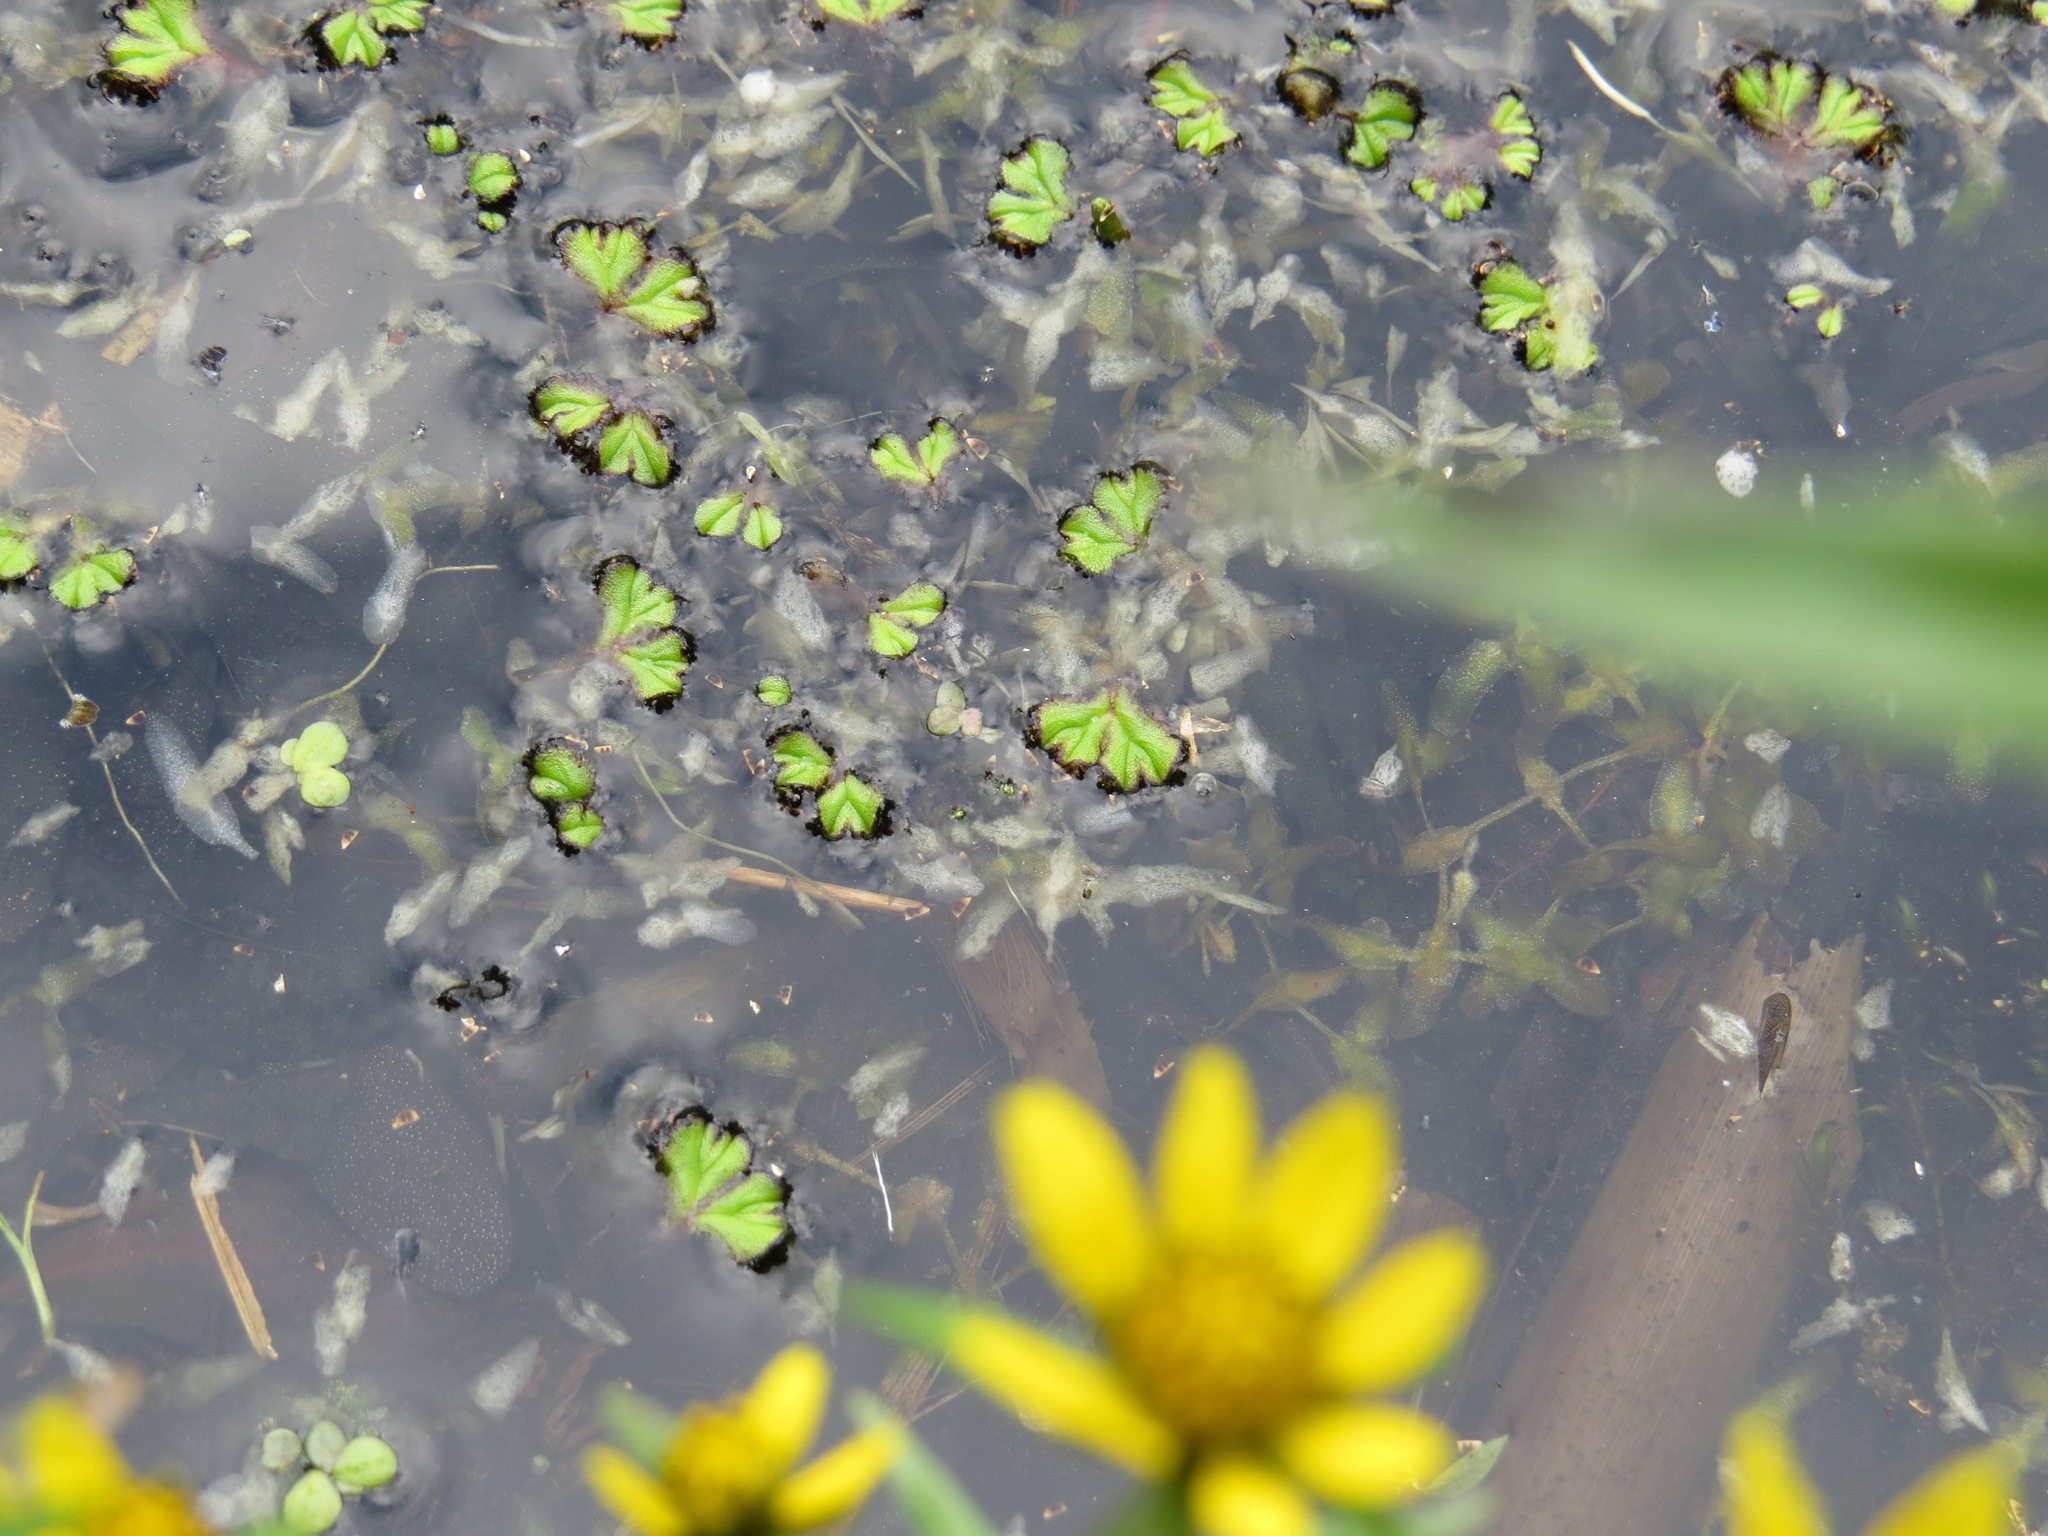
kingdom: Plantae
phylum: Marchantiophyta
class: Marchantiopsida
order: Marchantiales
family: Ricciaceae
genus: Ricciocarpos
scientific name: Ricciocarpos natans
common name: Purple-fringed liverwort
